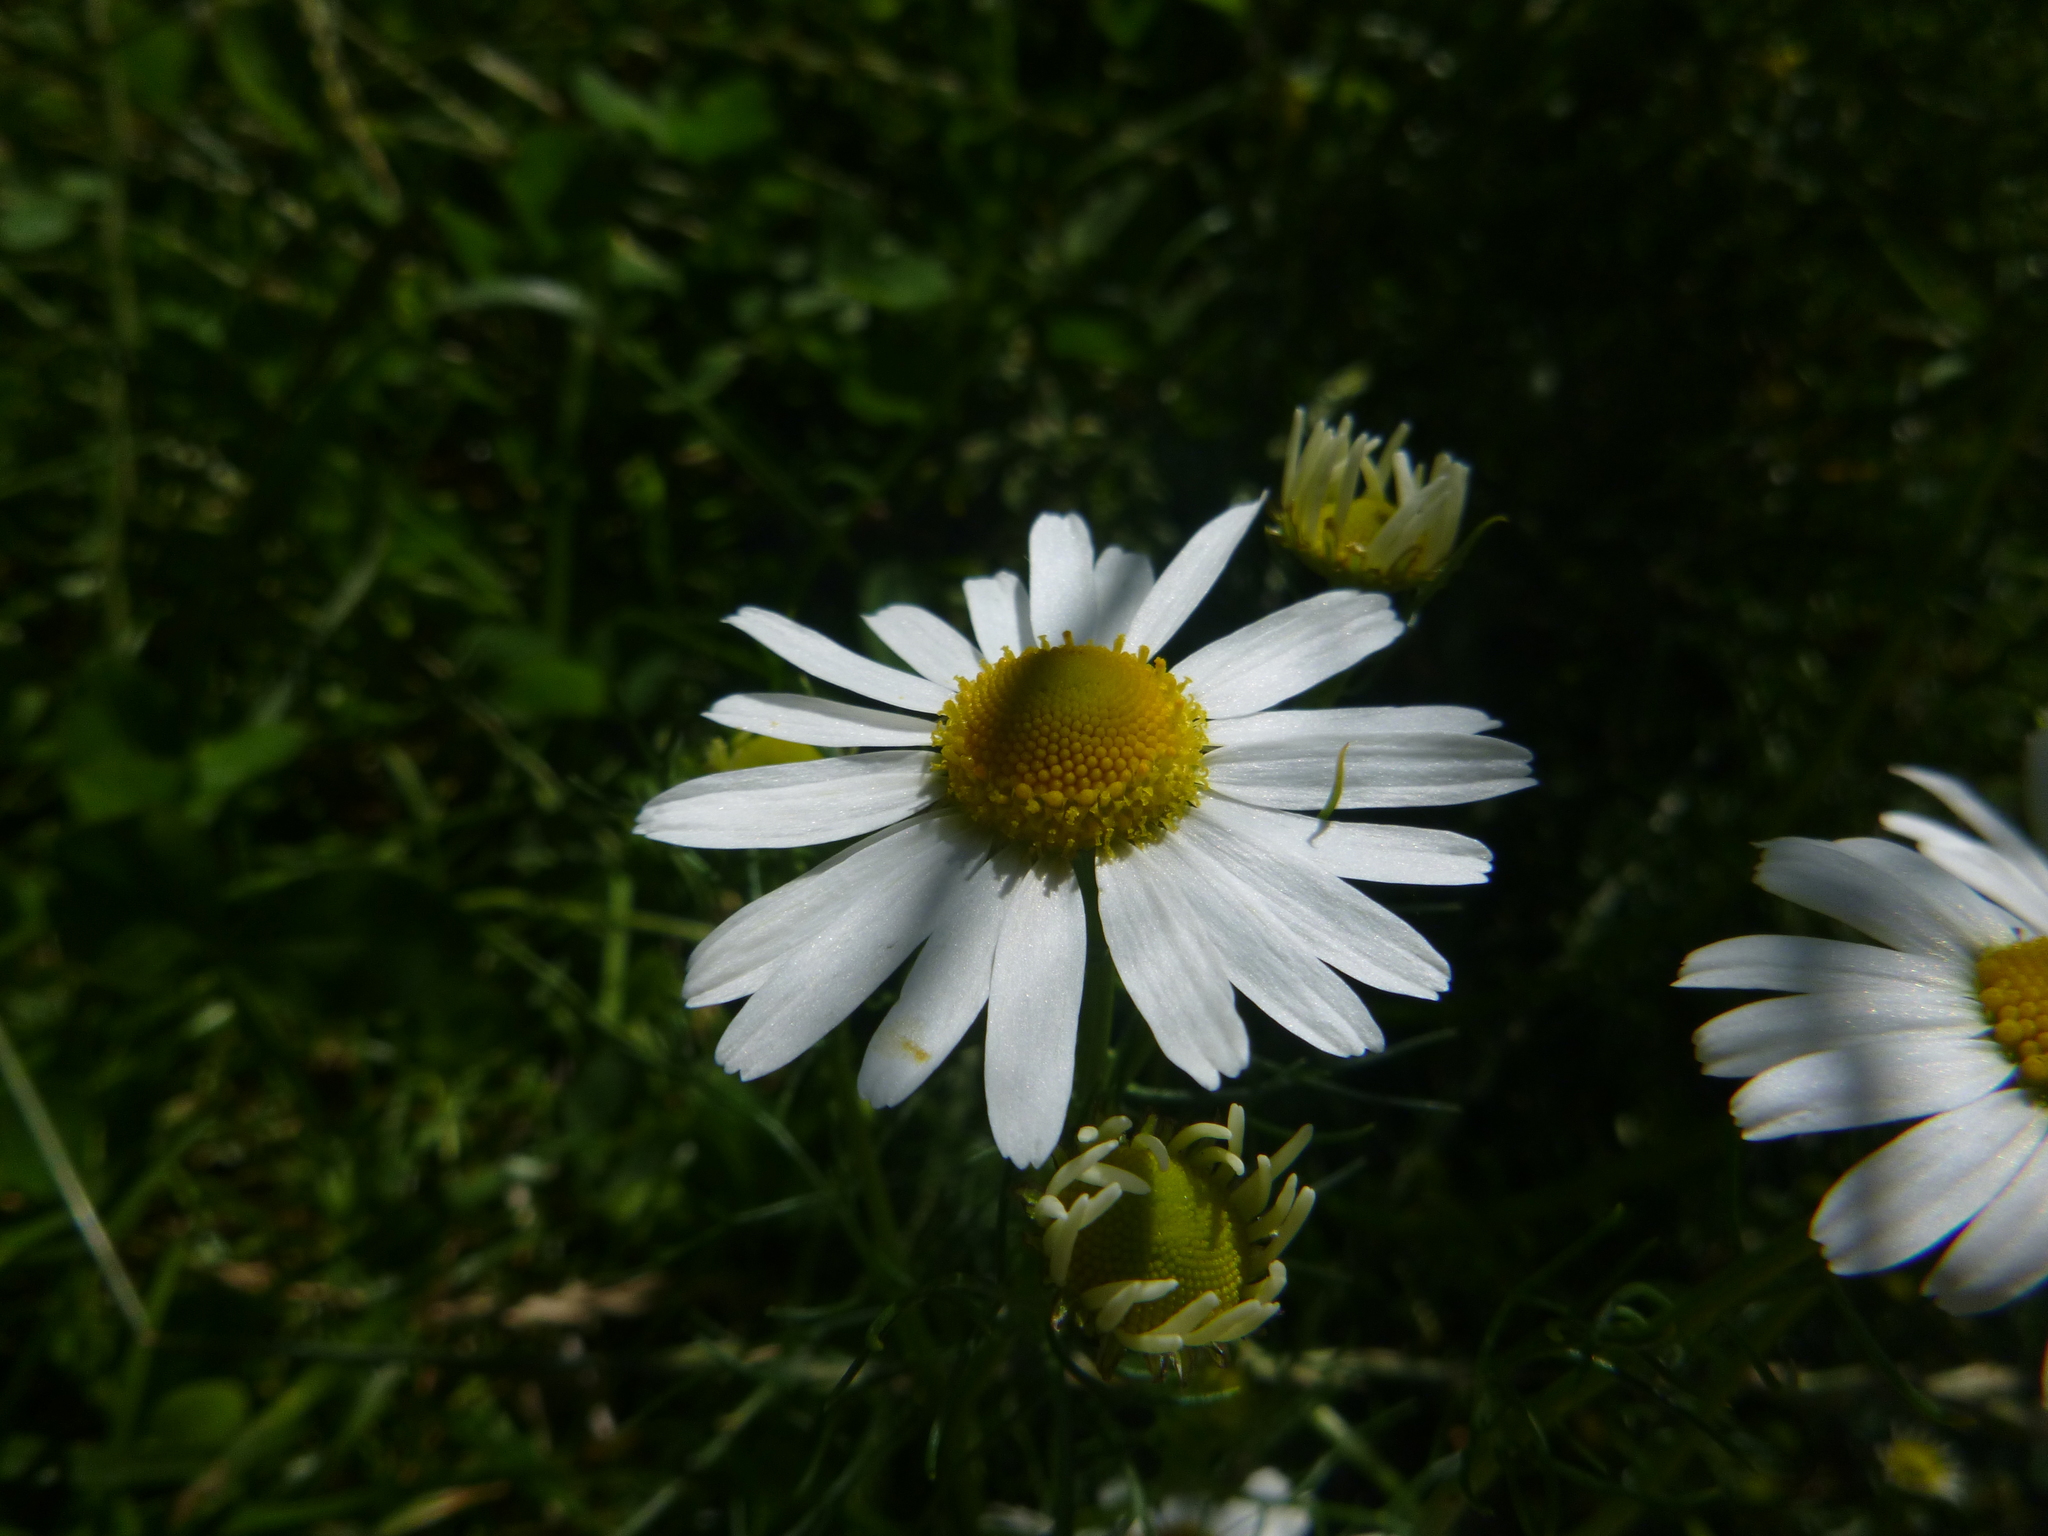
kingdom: Plantae
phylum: Tracheophyta
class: Magnoliopsida
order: Asterales
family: Asteraceae
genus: Tripleurospermum
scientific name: Tripleurospermum inodorum
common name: Scentless mayweed
